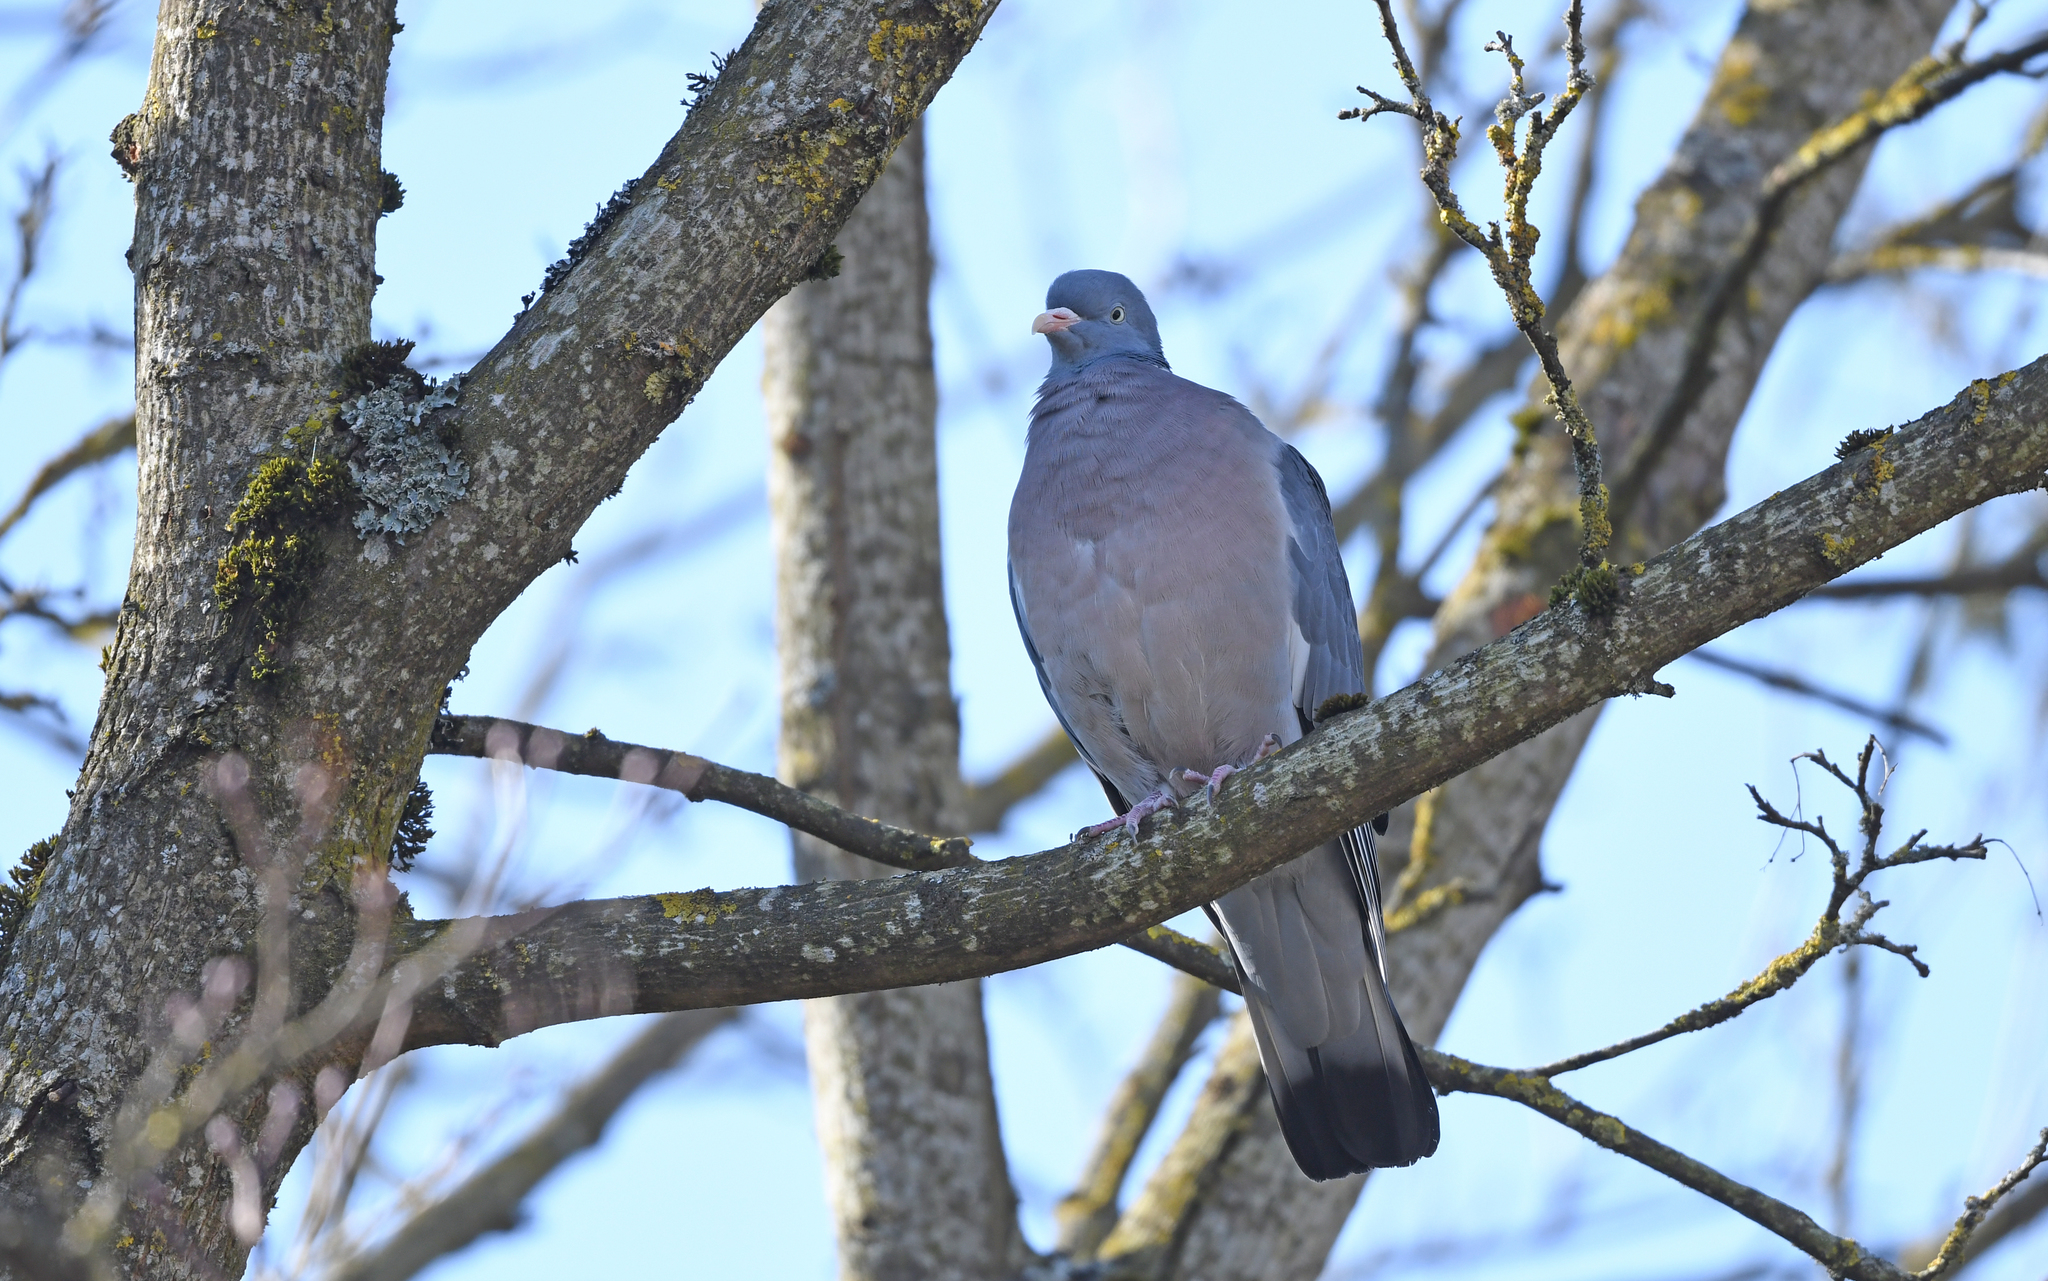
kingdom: Animalia
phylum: Chordata
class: Aves
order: Columbiformes
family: Columbidae
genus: Columba
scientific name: Columba palumbus
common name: Common wood pigeon
